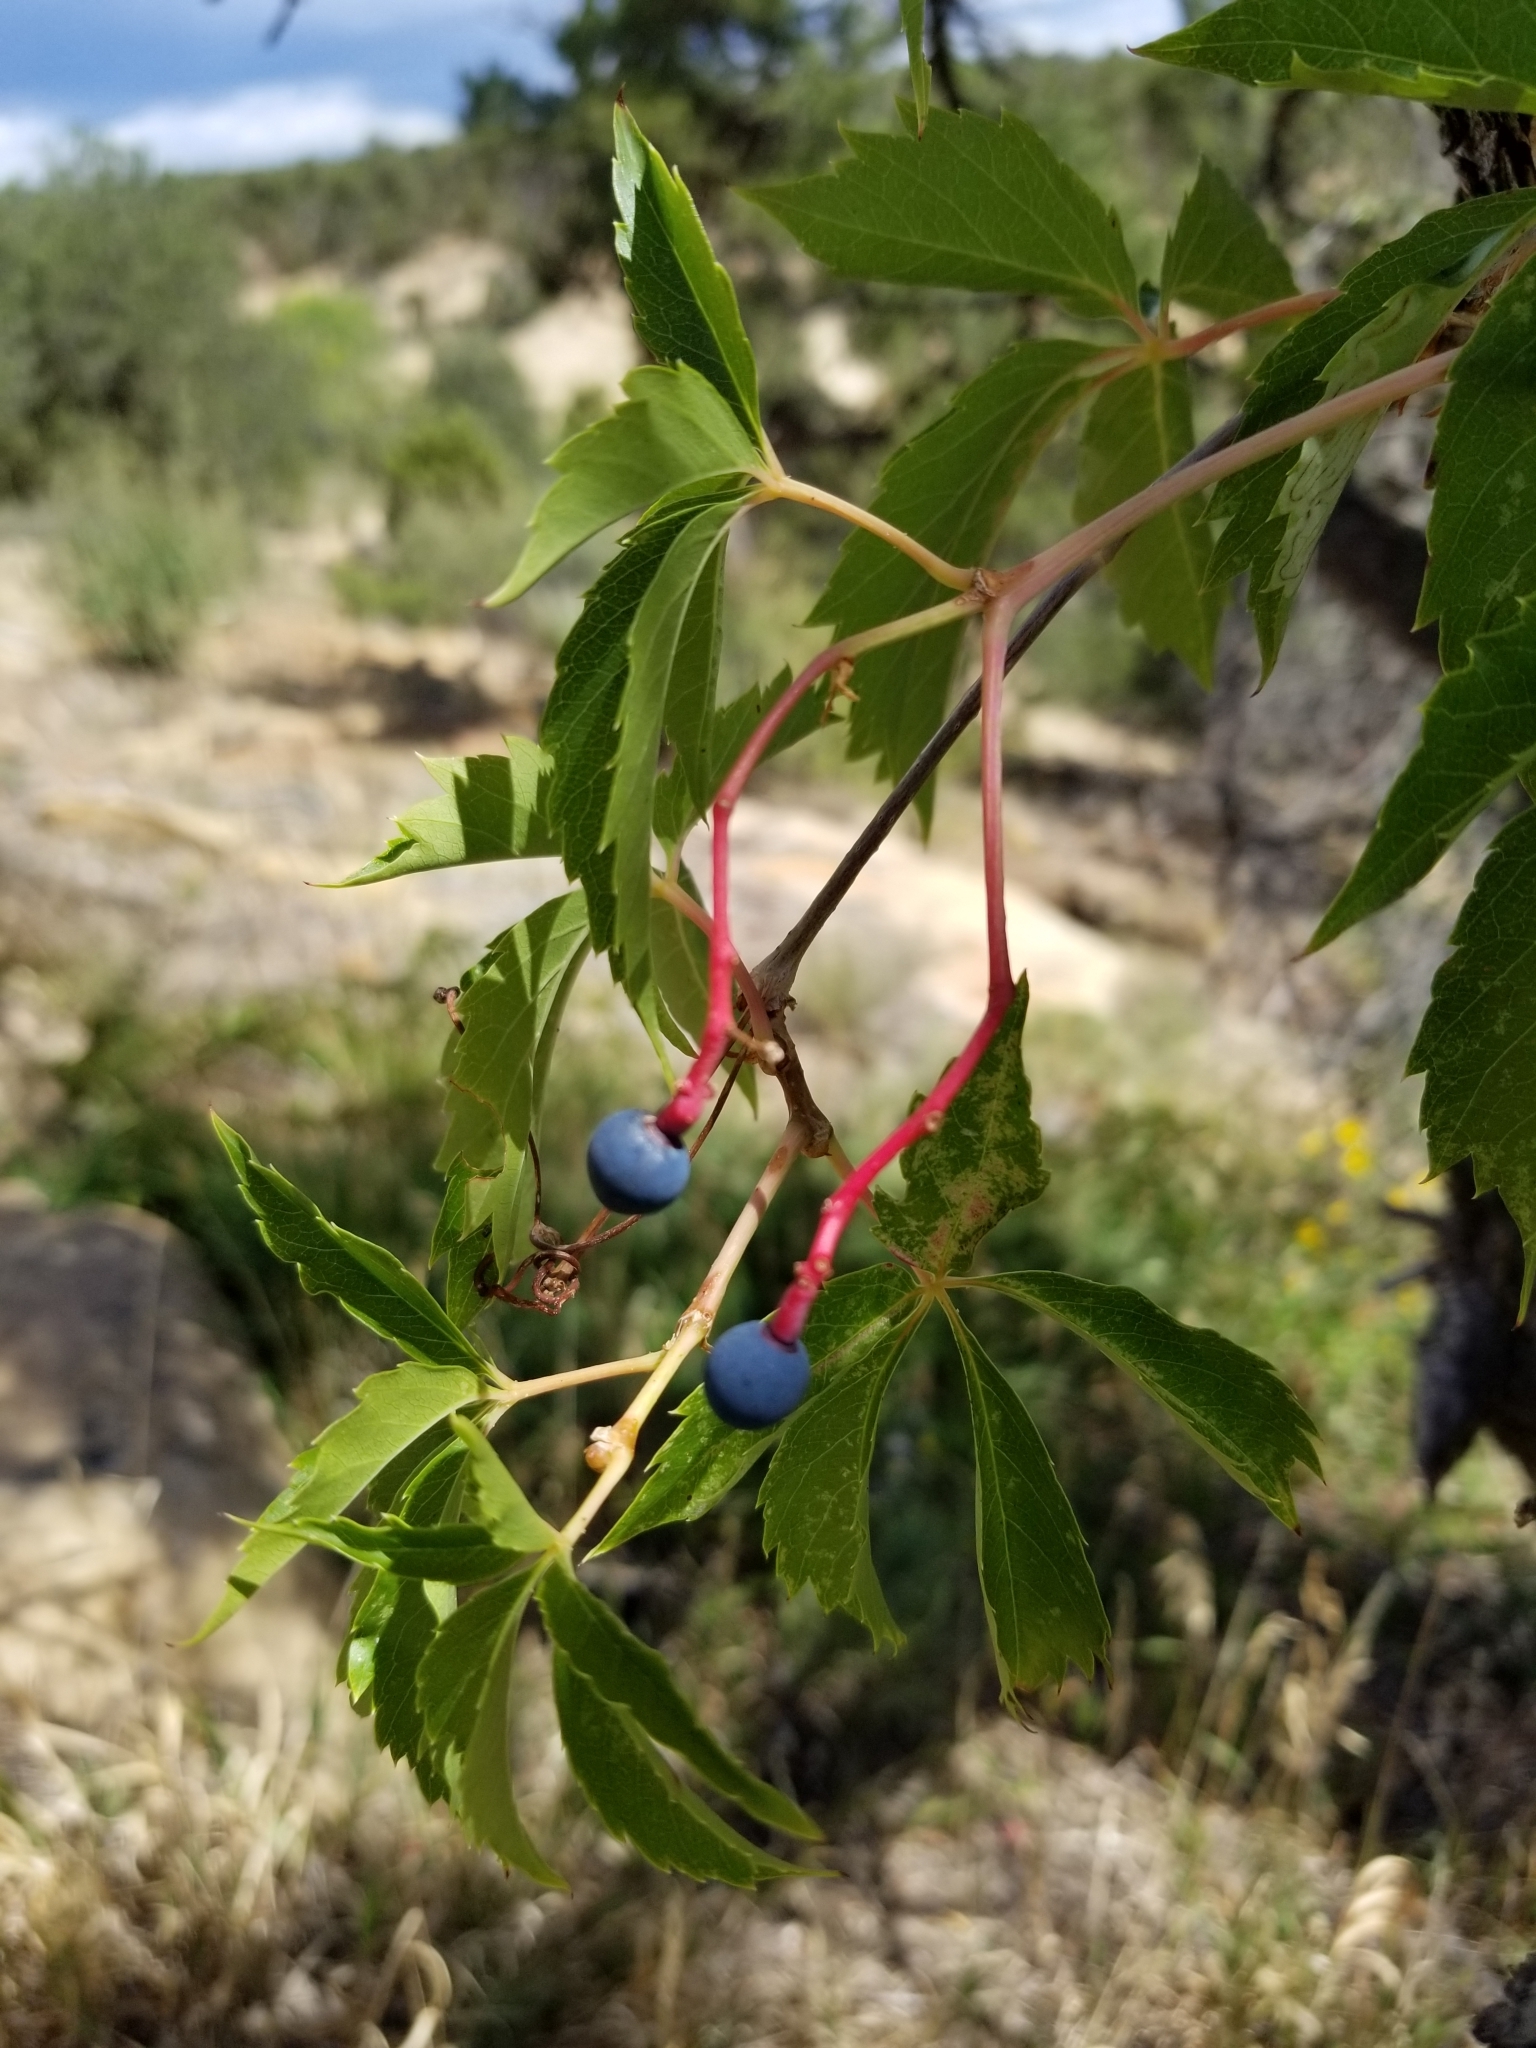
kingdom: Plantae
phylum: Tracheophyta
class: Magnoliopsida
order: Vitales
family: Vitaceae
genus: Parthenocissus
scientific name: Parthenocissus quinquefolia
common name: Virginia-creeper
